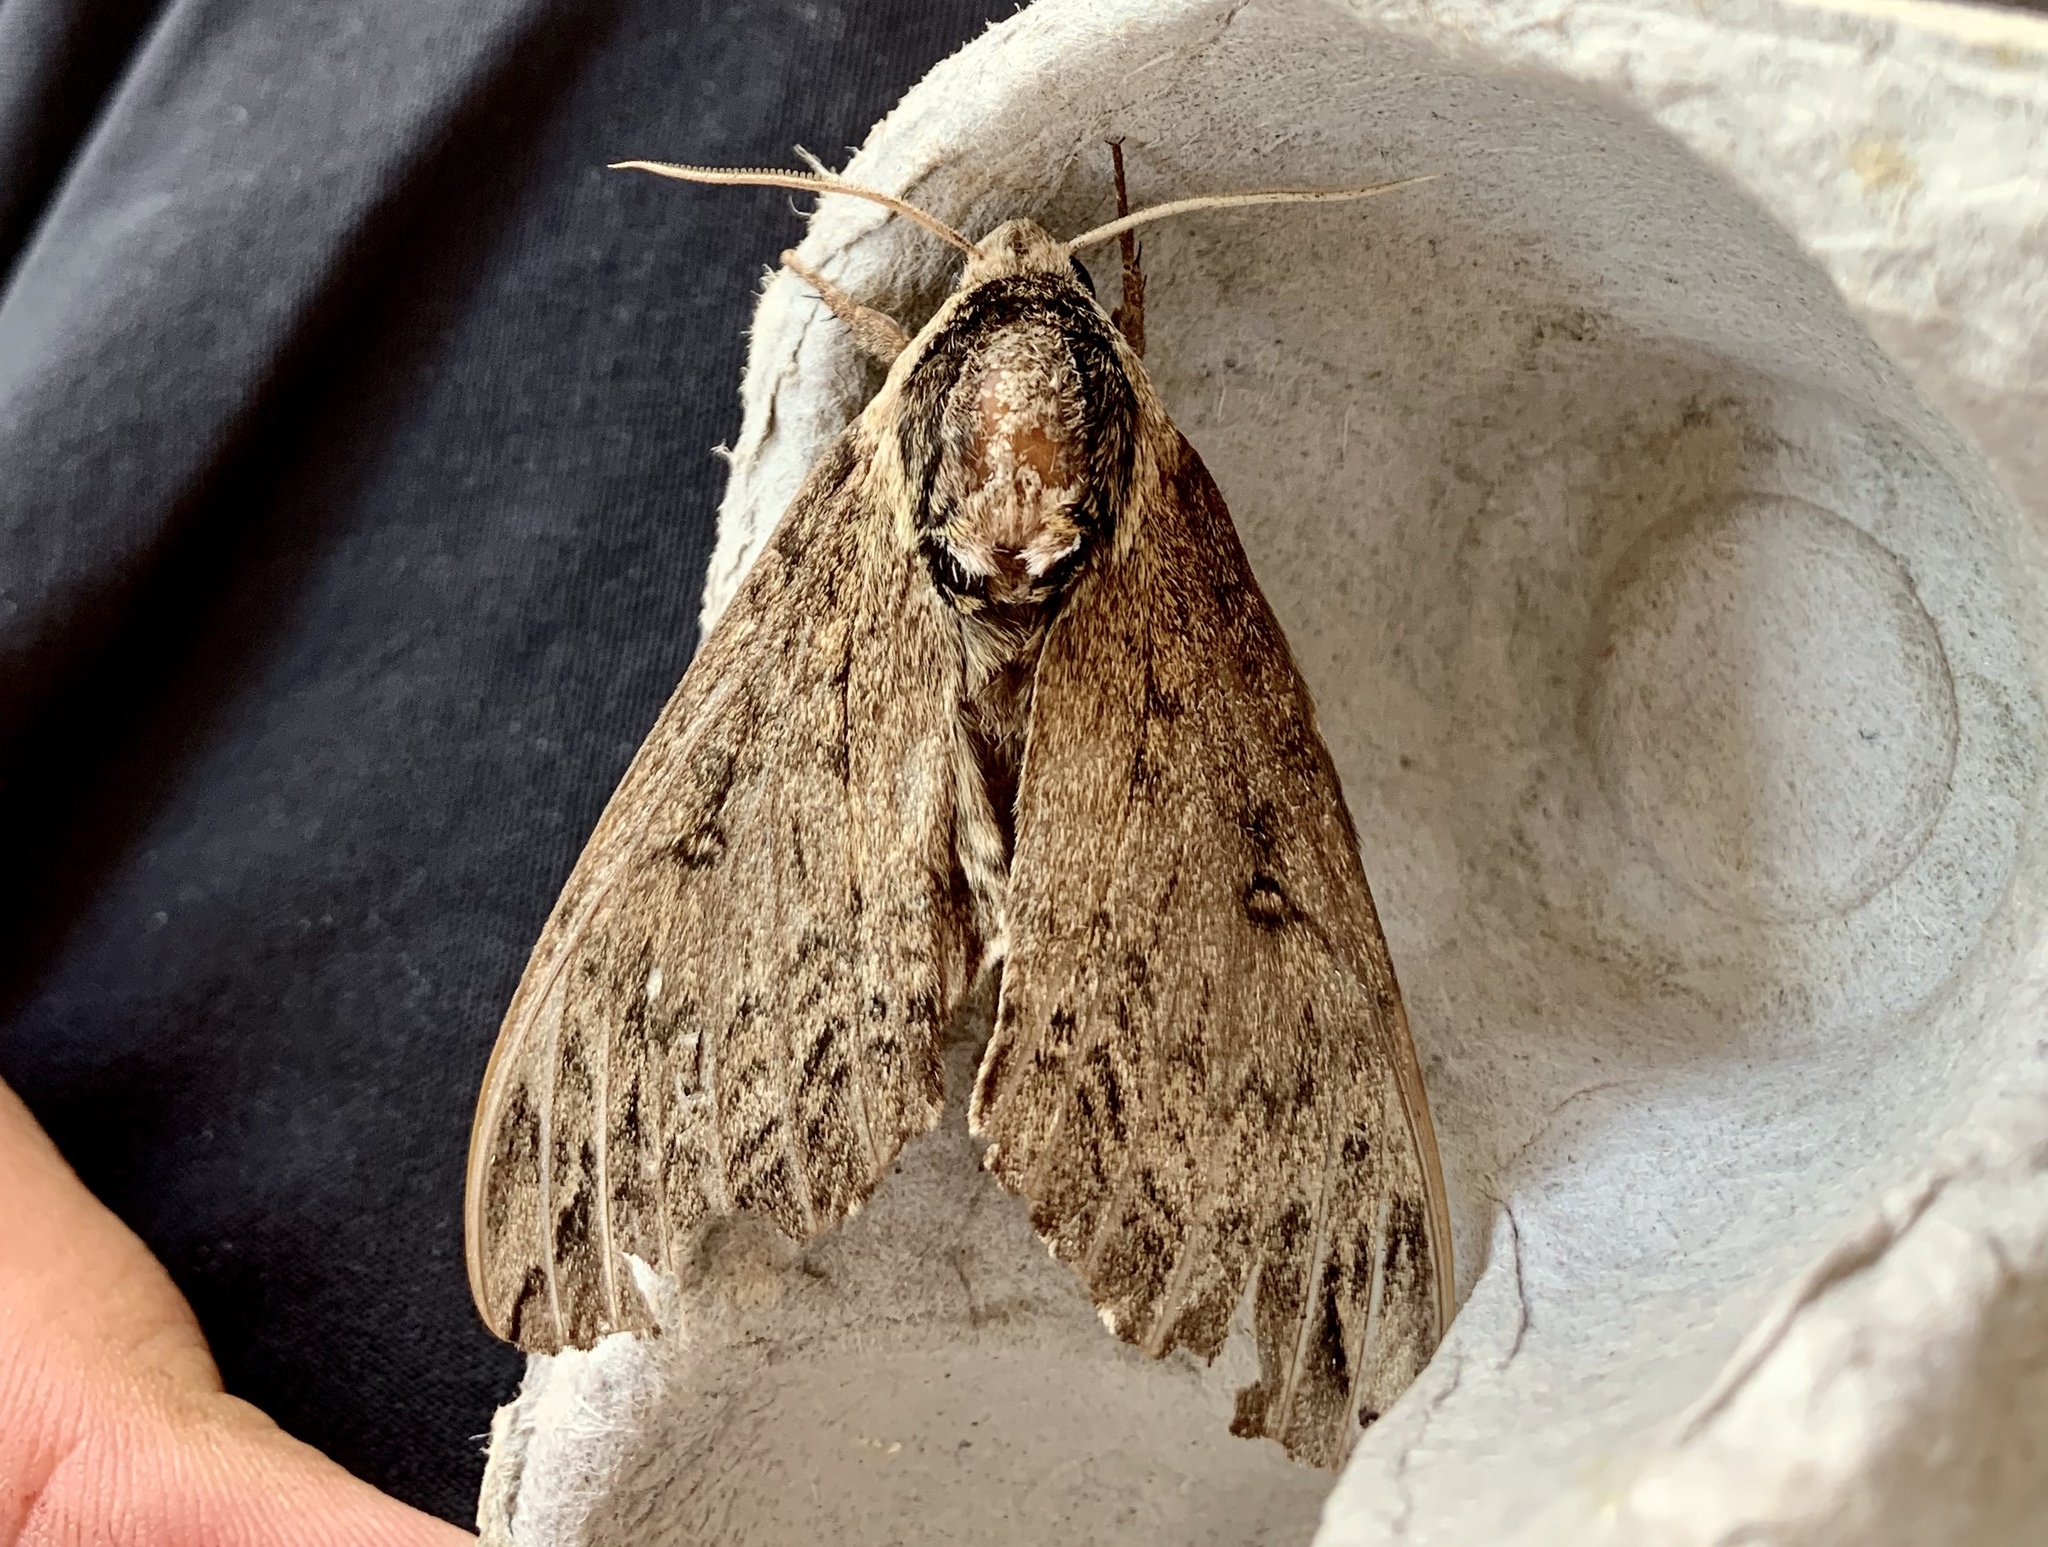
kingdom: Animalia
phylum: Arthropoda
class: Insecta
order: Lepidoptera
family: Sphingidae
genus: Ceratomia
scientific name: Ceratomia catalpae
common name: Catalpa hornworm
